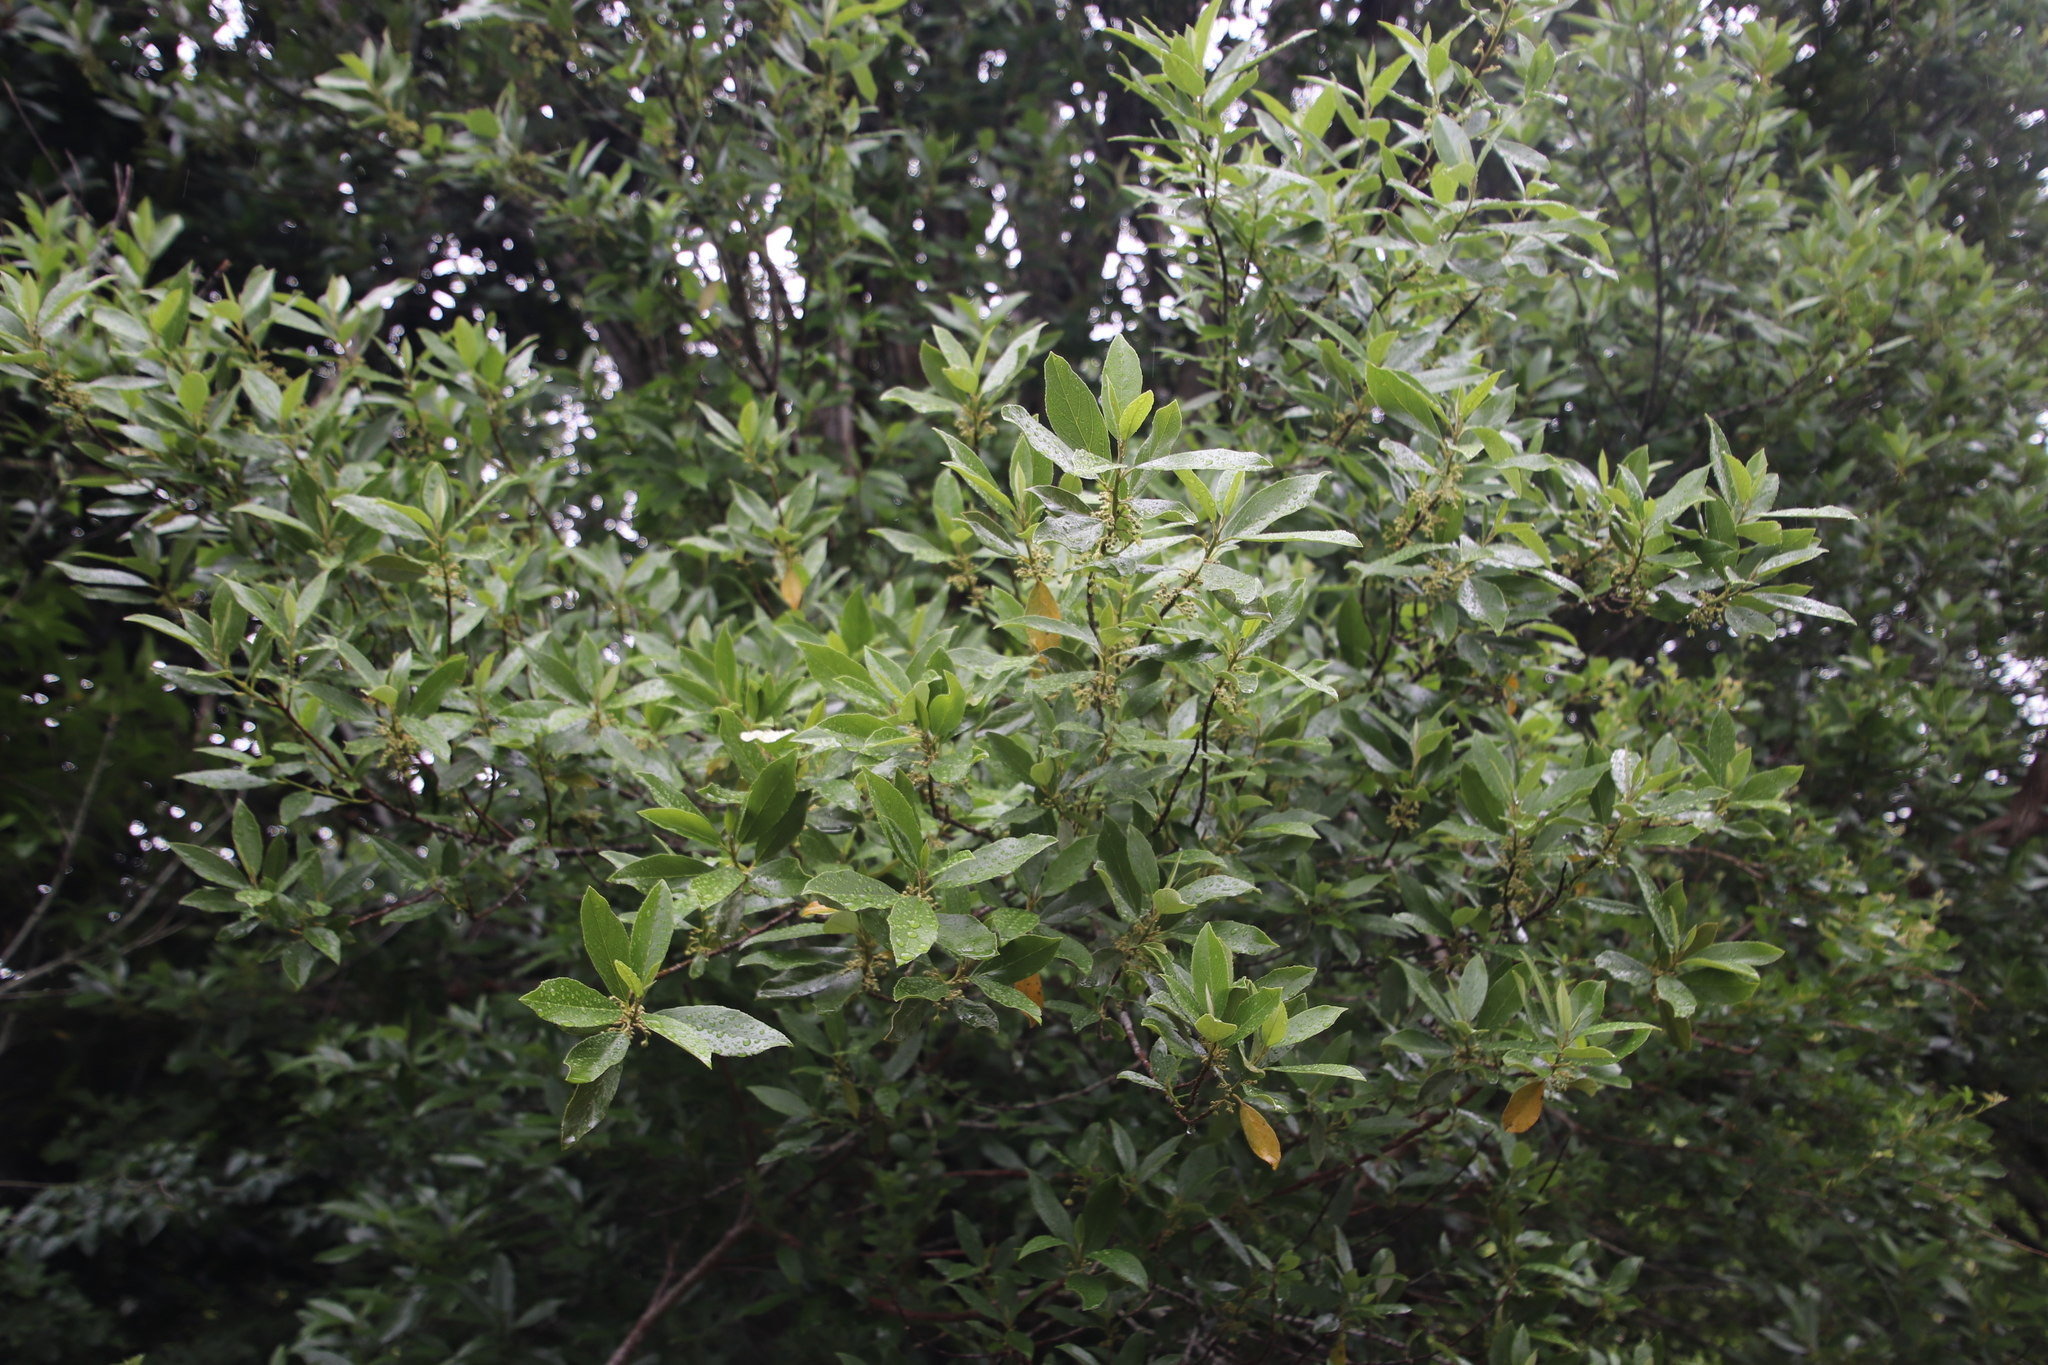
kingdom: Plantae
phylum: Tracheophyta
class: Magnoliopsida
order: Malpighiales
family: Achariaceae
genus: Kiggelaria
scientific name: Kiggelaria africana
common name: Wild peach
